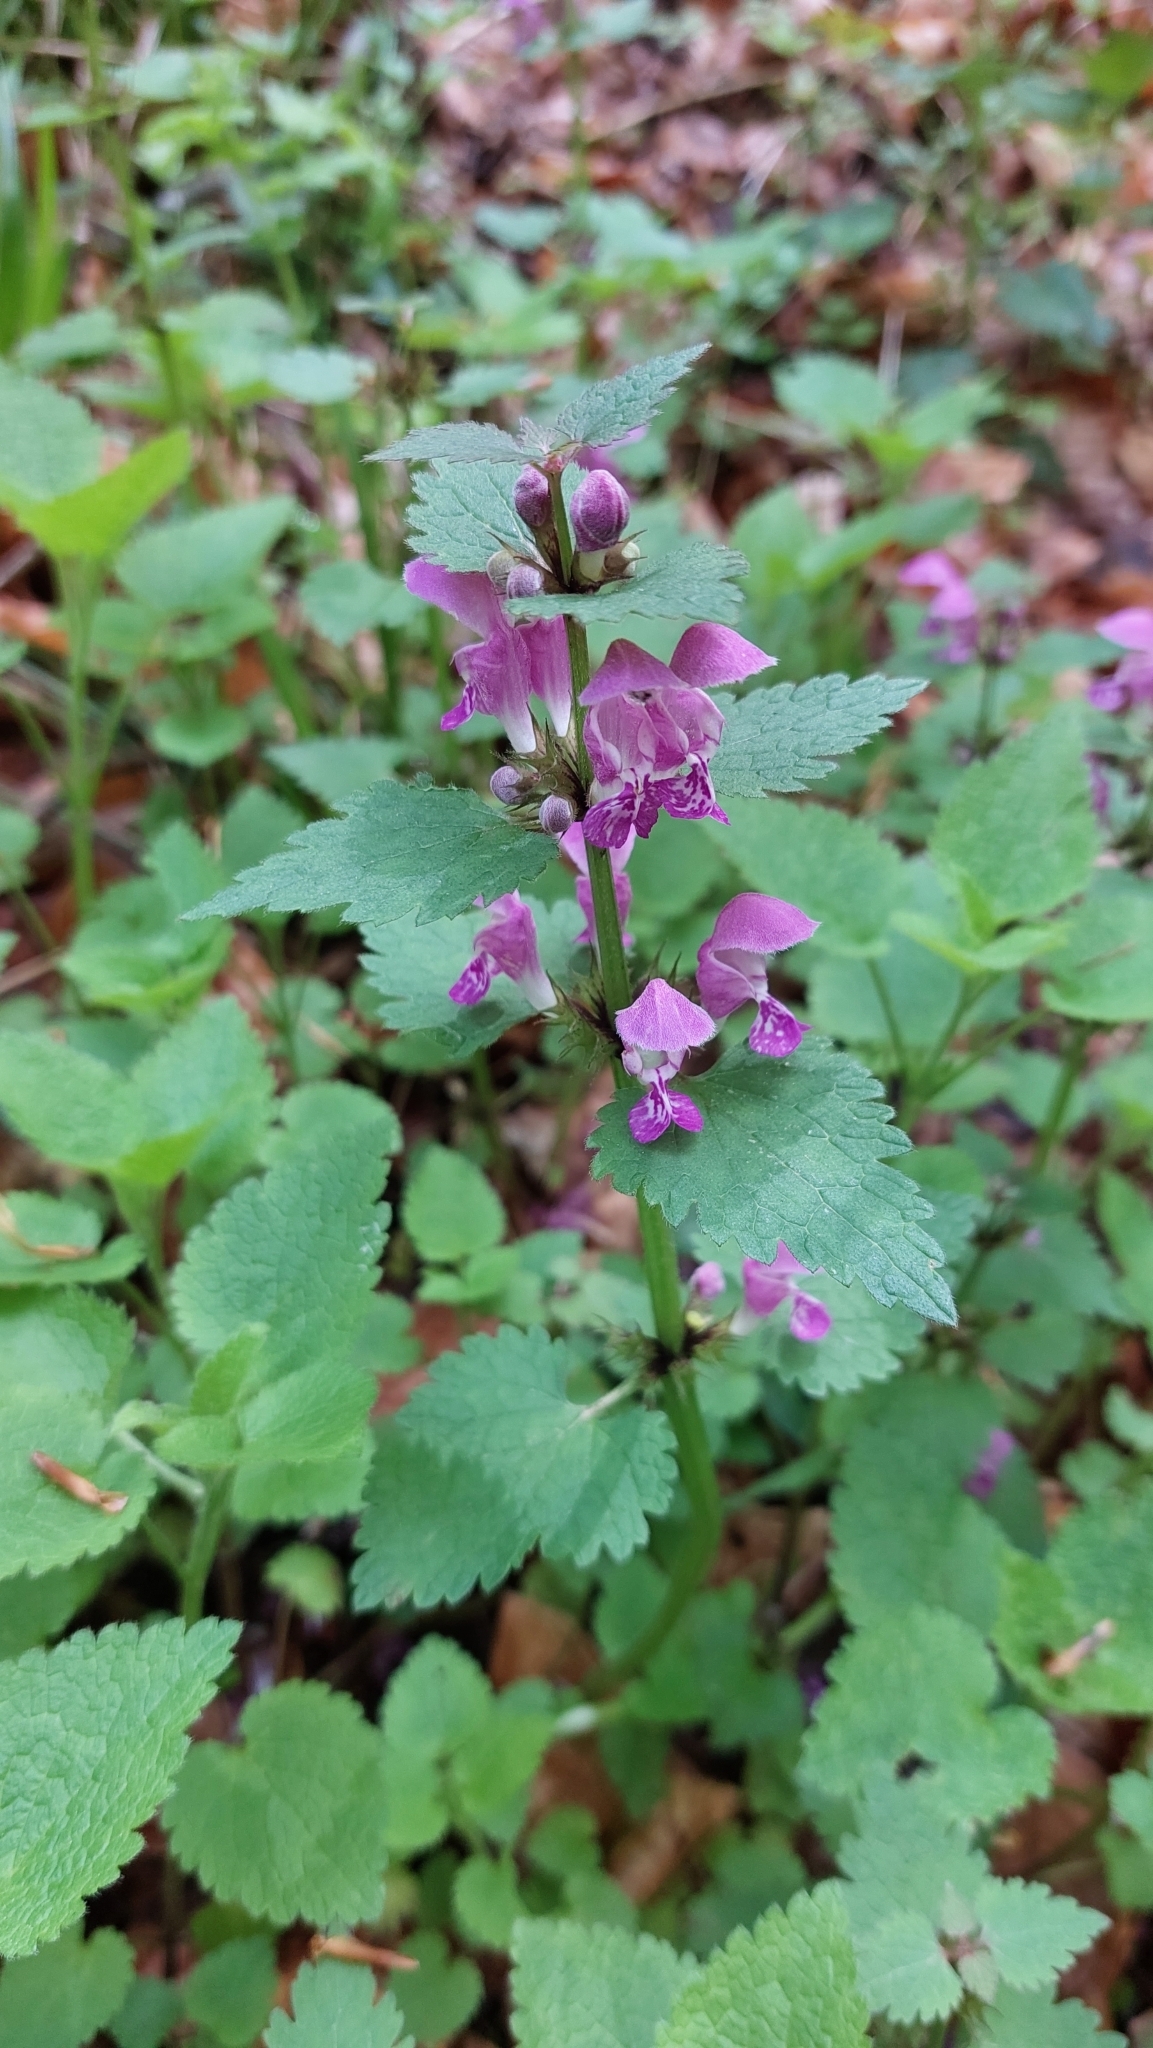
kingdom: Plantae
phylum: Tracheophyta
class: Magnoliopsida
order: Lamiales
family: Lamiaceae
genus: Lamium
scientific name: Lamium maculatum
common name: Spotted dead-nettle
